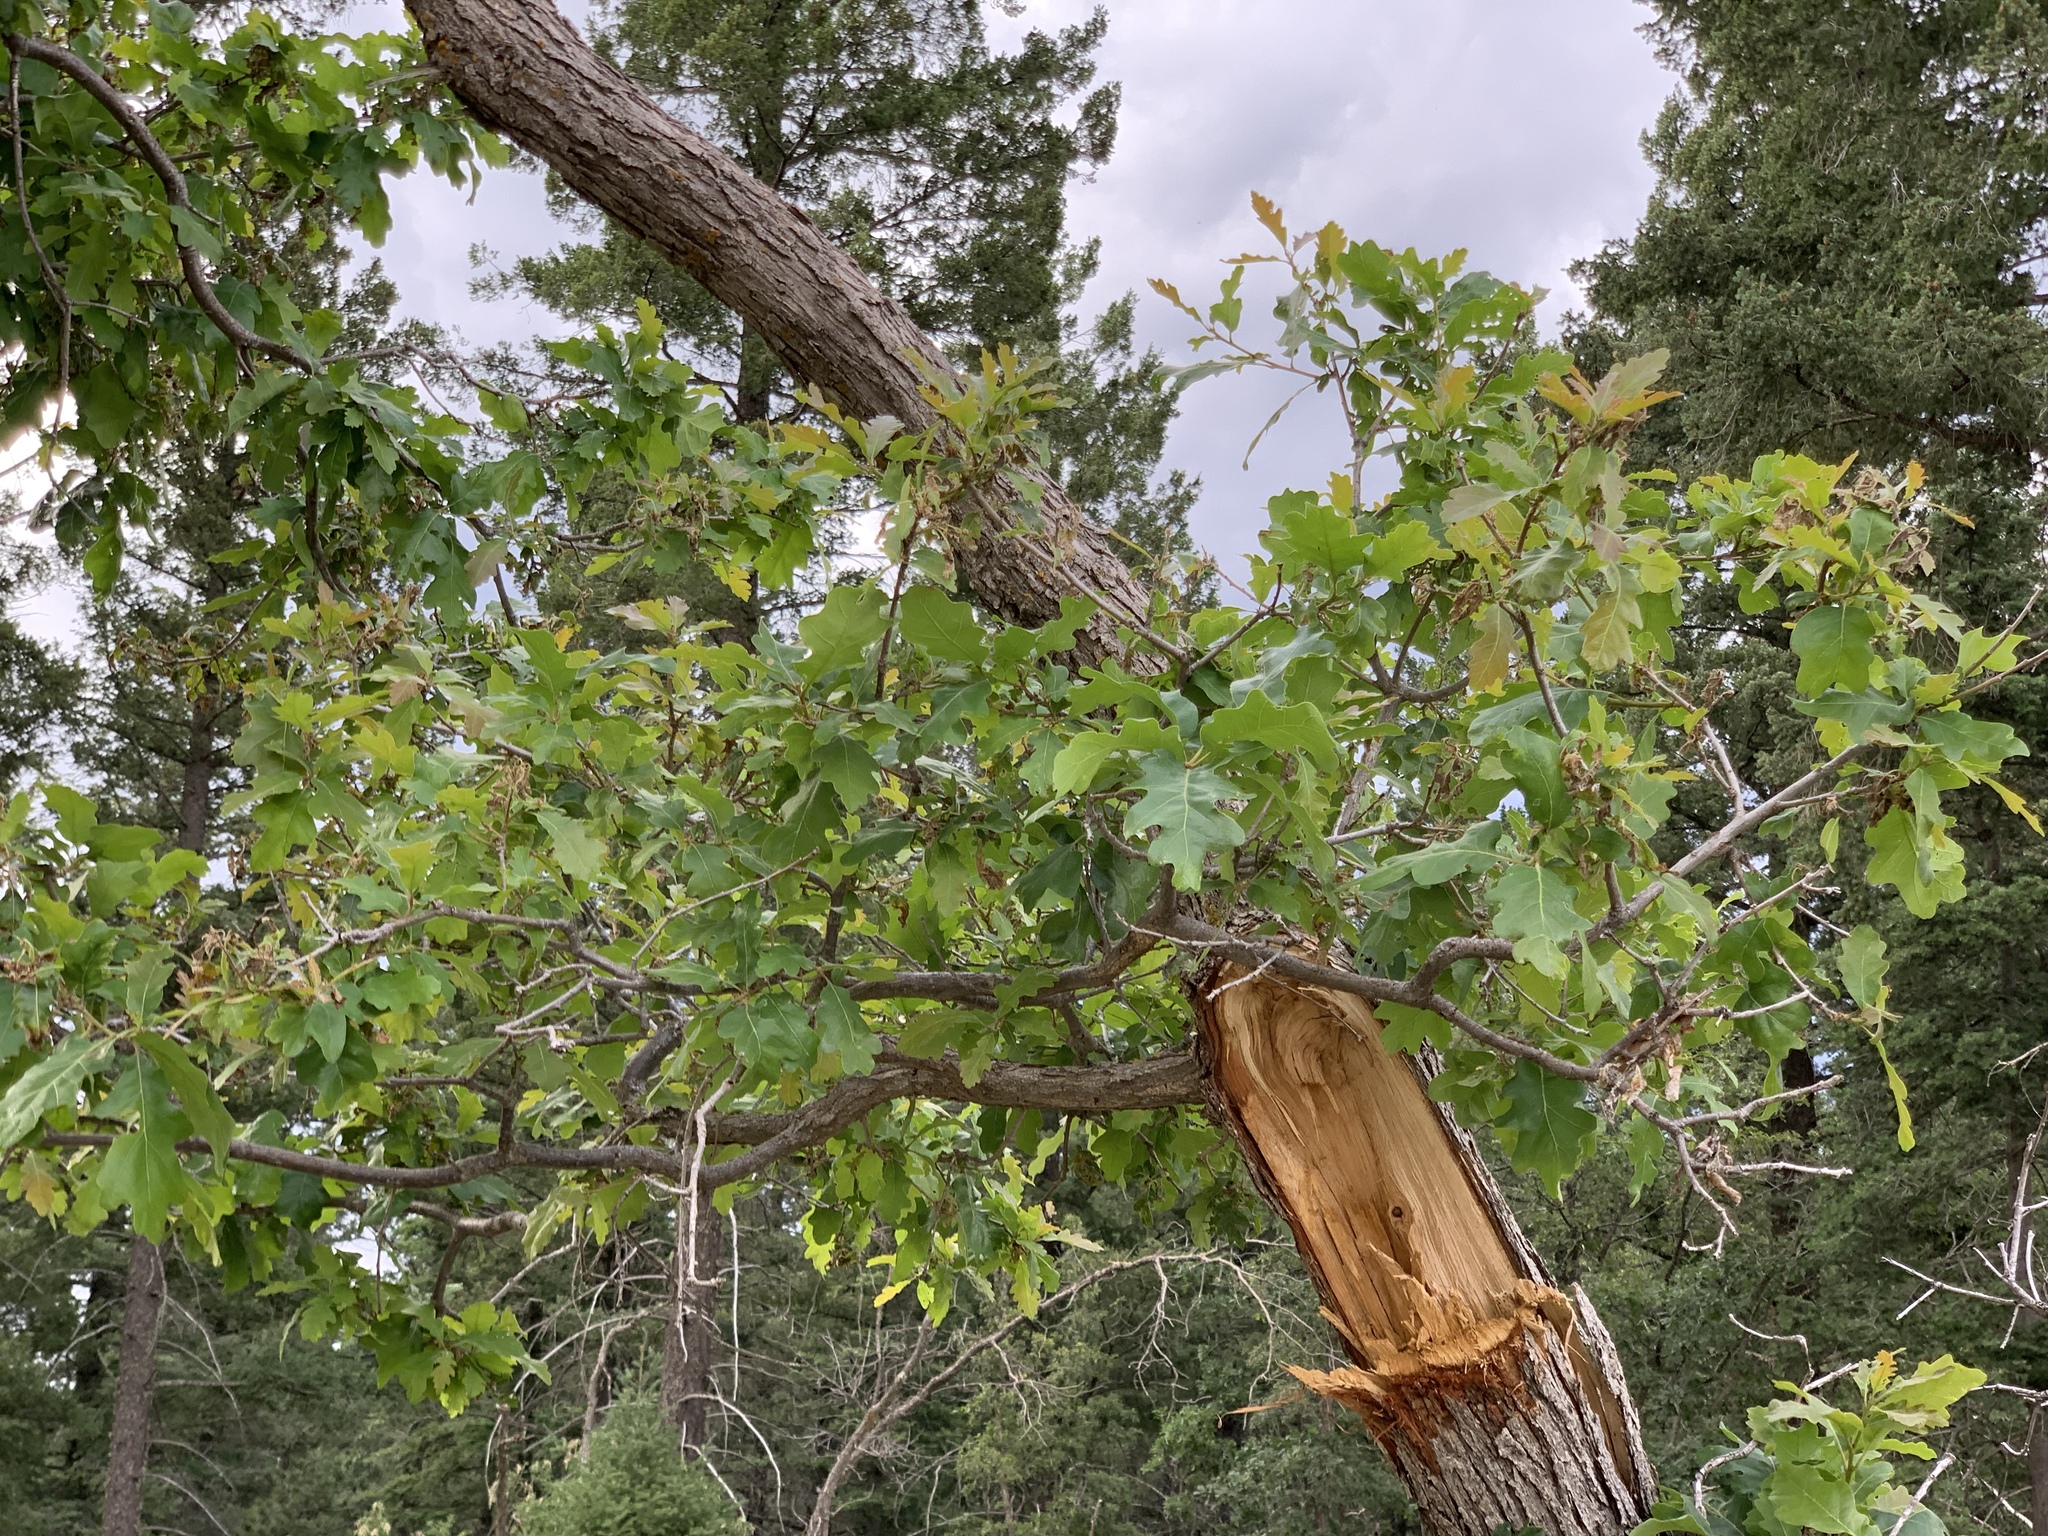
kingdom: Plantae
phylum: Tracheophyta
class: Magnoliopsida
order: Fagales
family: Fagaceae
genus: Quercus
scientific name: Quercus gambelii
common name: Gambel oak
